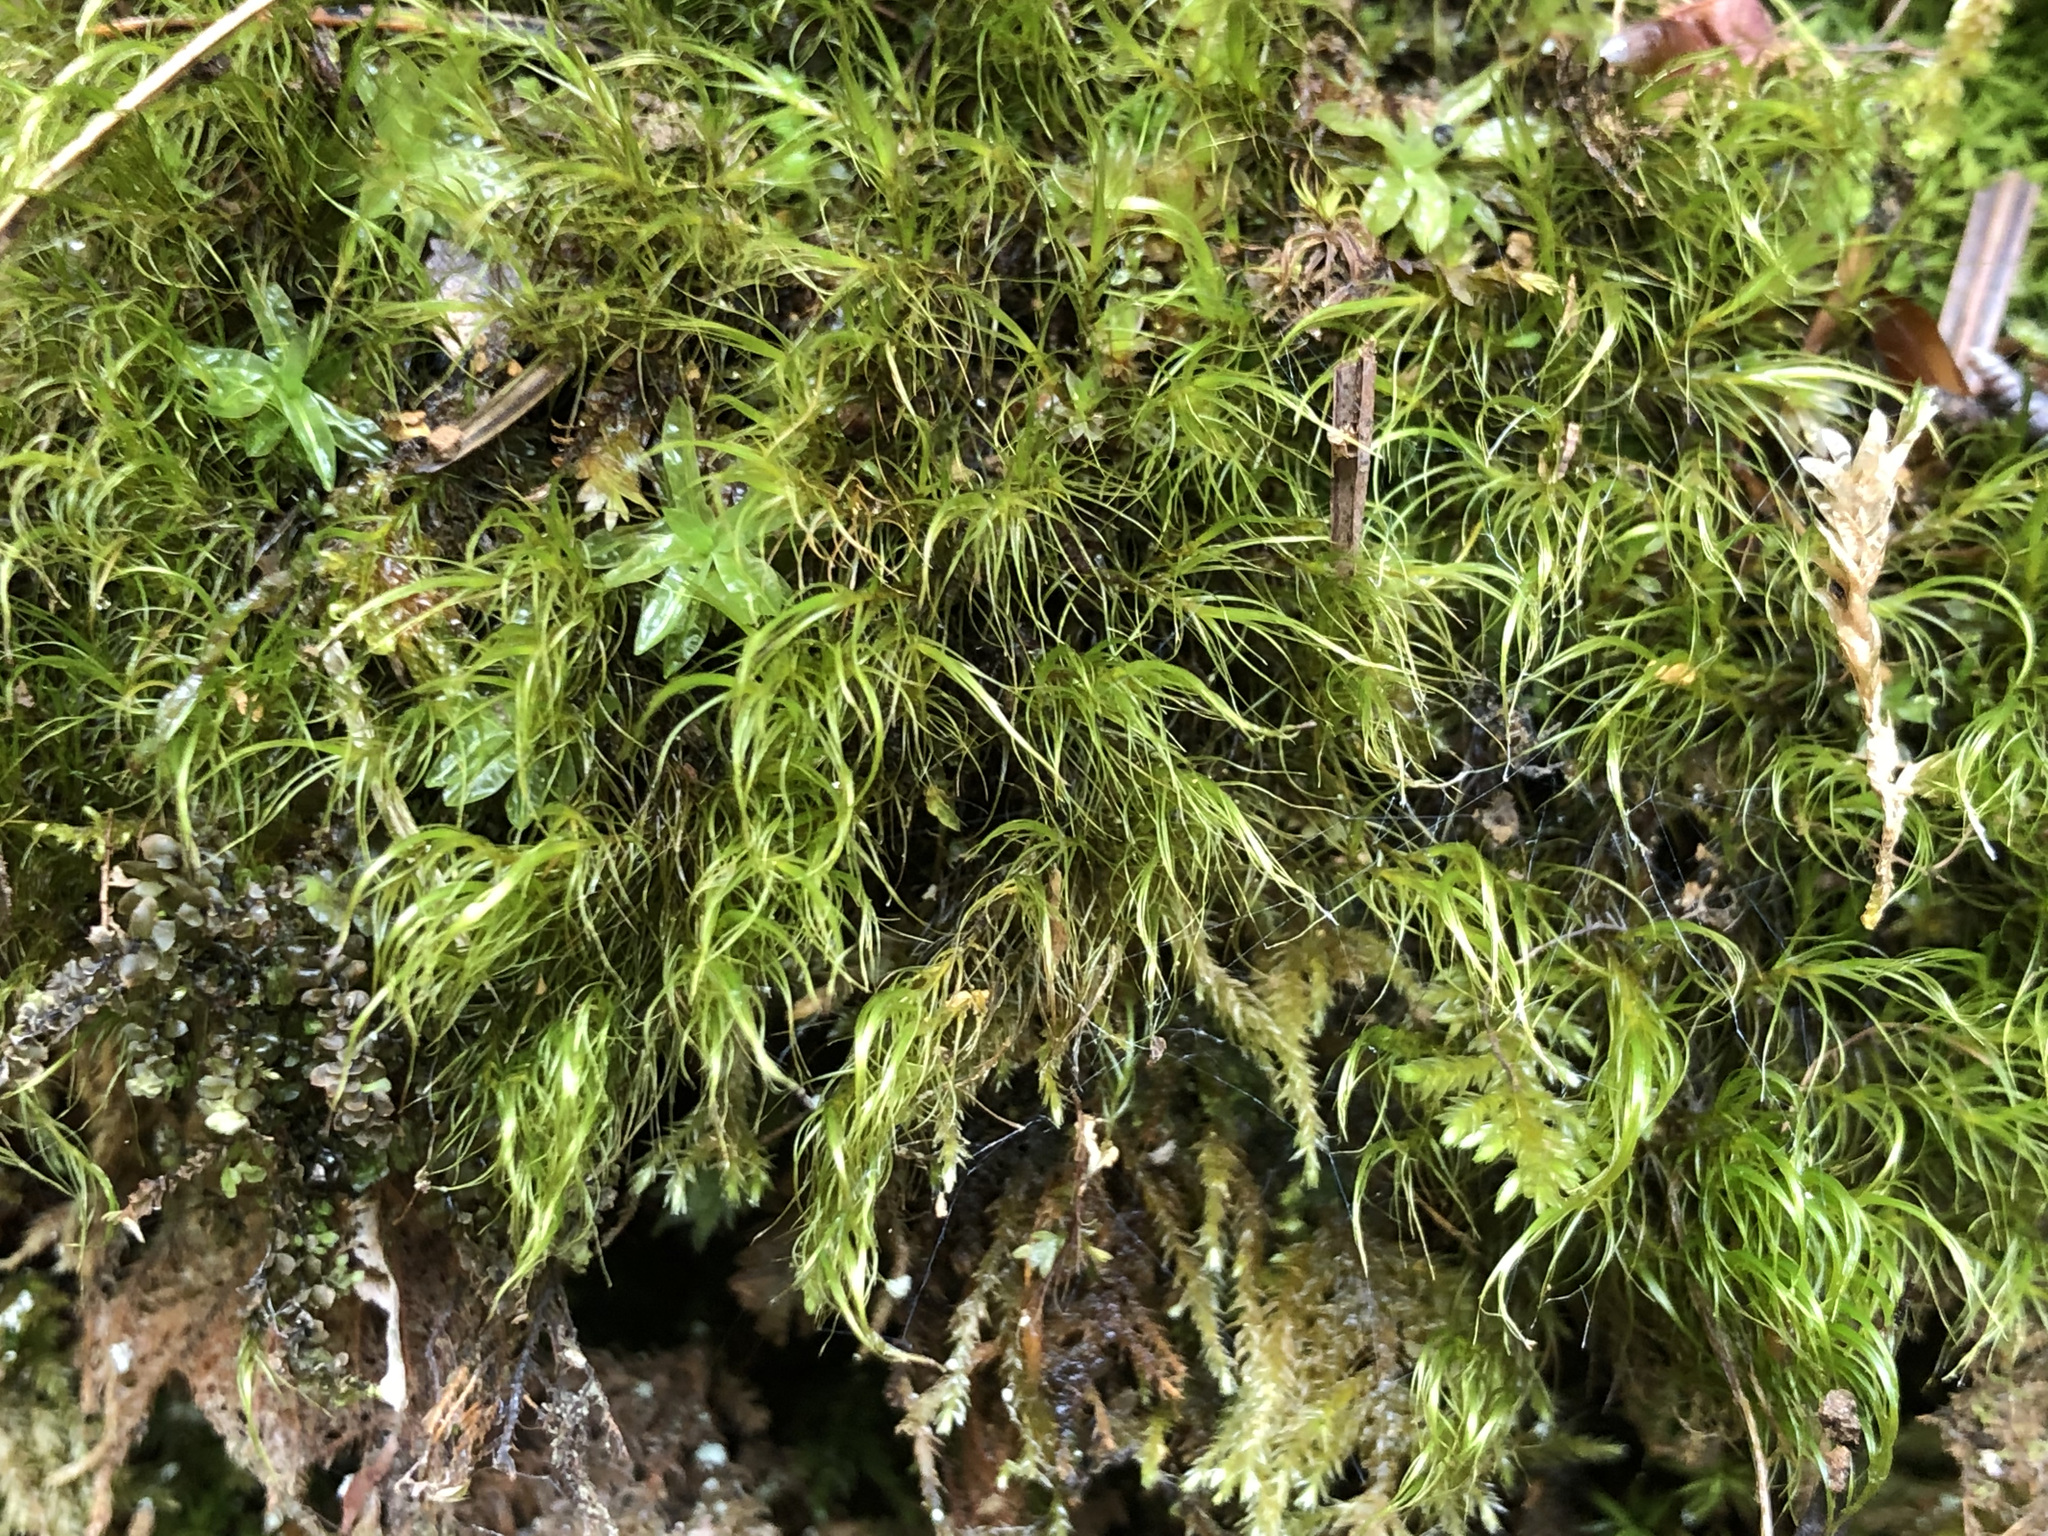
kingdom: Plantae
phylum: Bryophyta
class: Bryopsida
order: Scouleriales
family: Flexitrichaceae
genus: Flexitrichum
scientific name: Flexitrichum gracile
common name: Slender ditrichum
